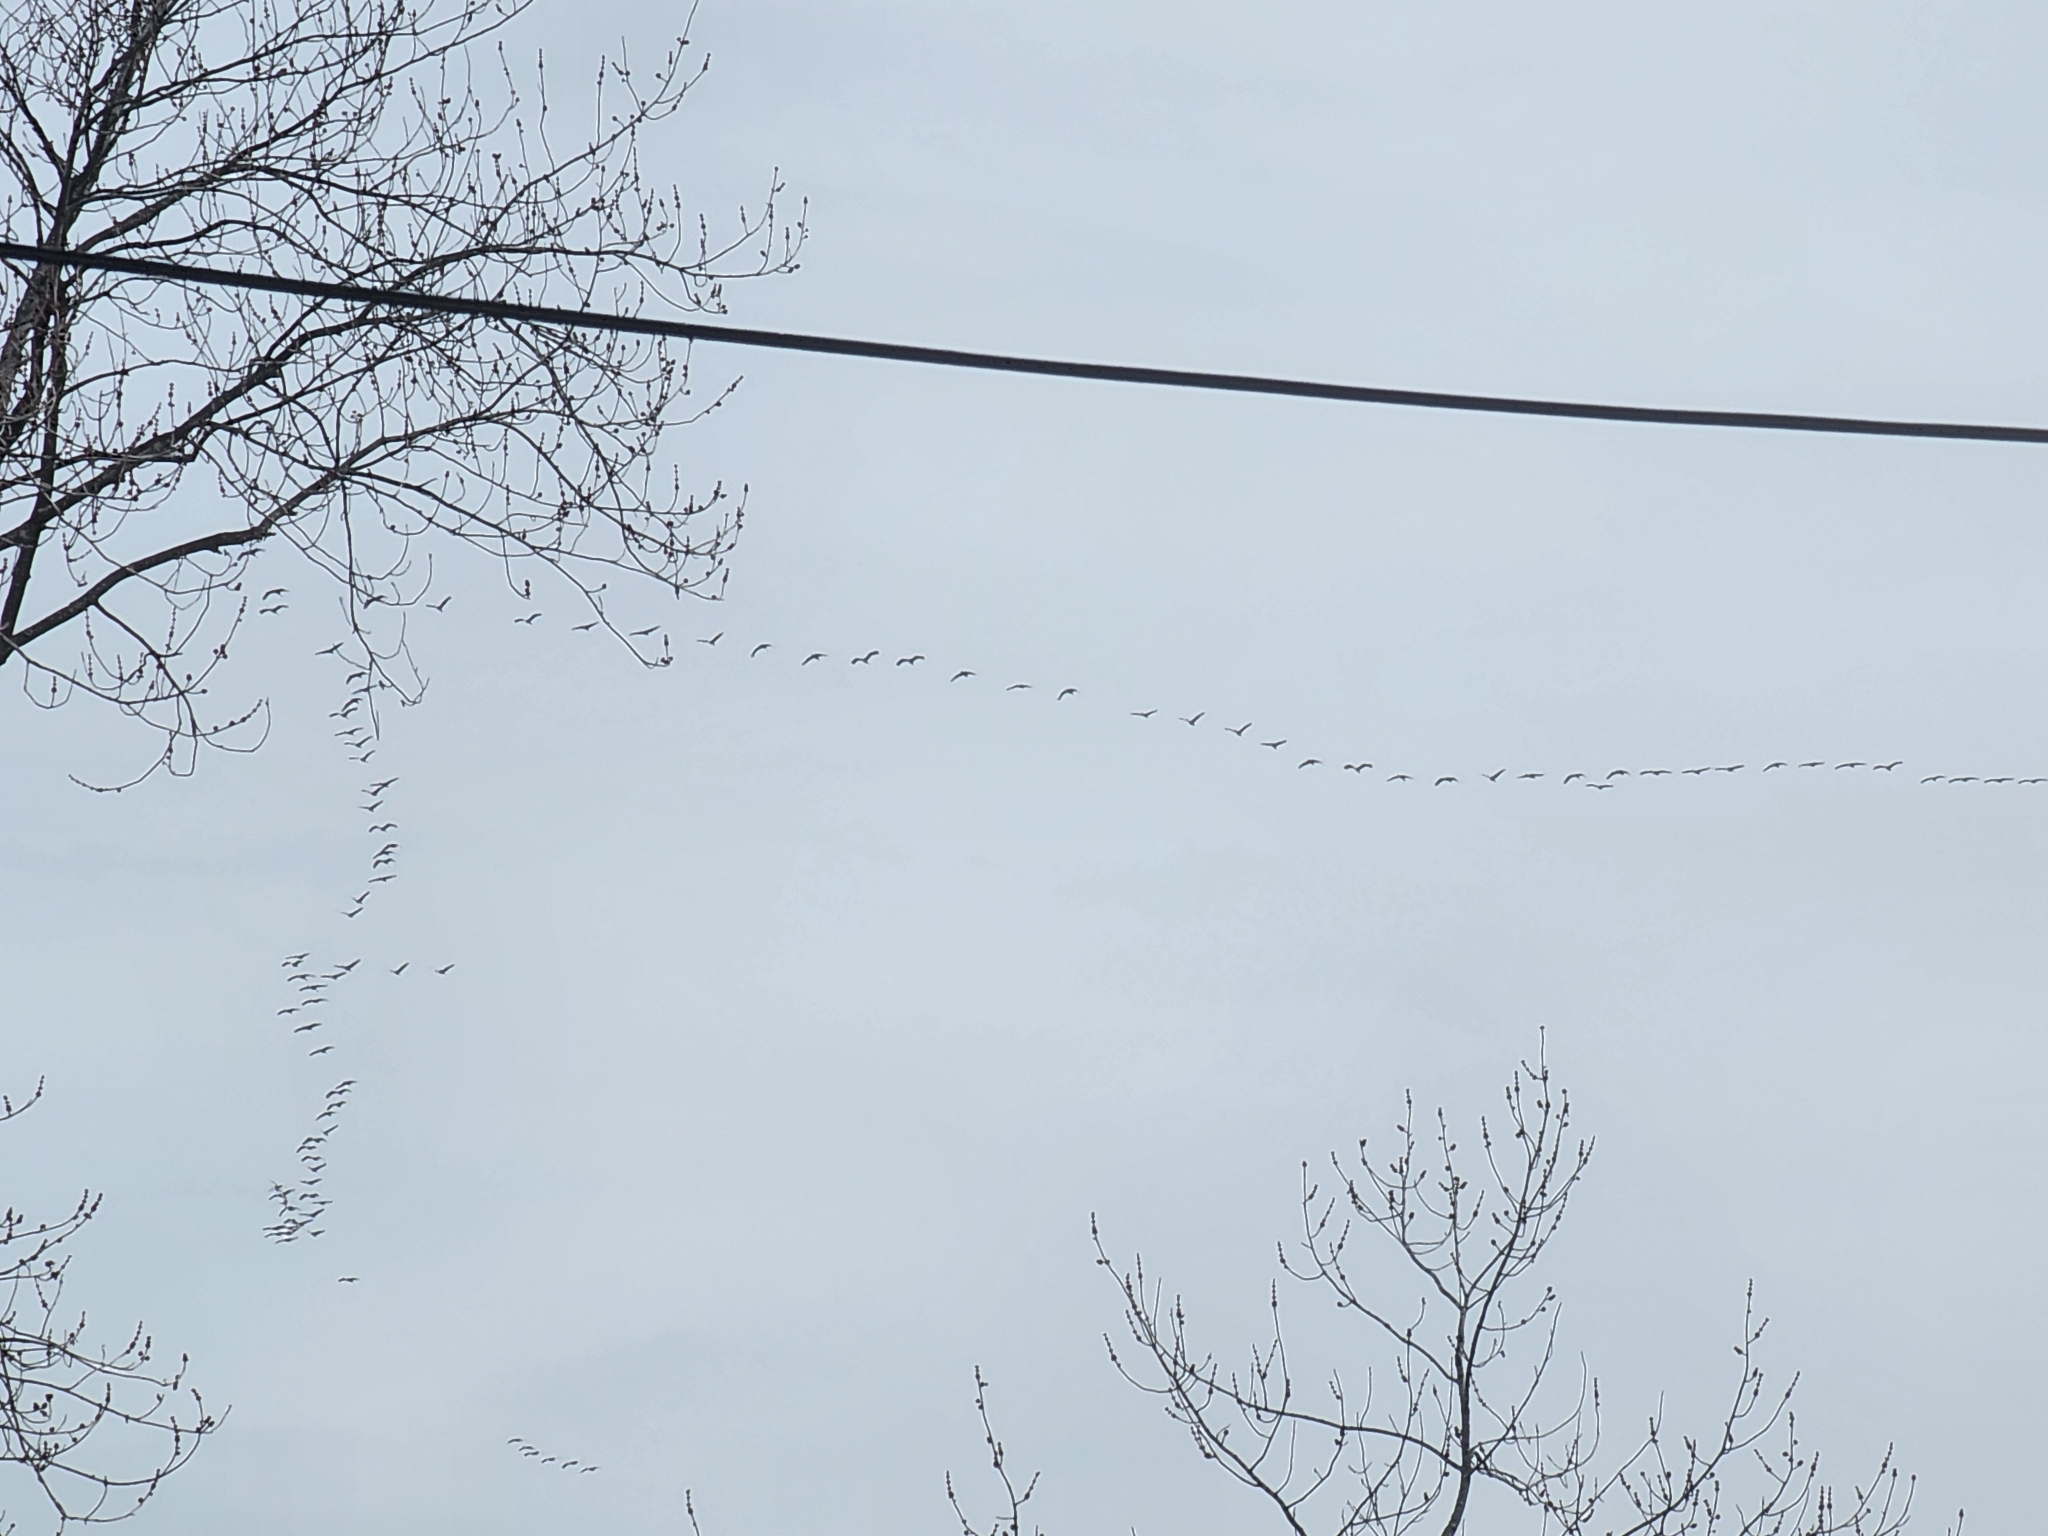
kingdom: Animalia
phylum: Chordata
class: Aves
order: Gruiformes
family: Gruidae
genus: Grus
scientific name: Grus canadensis
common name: Sandhill crane
